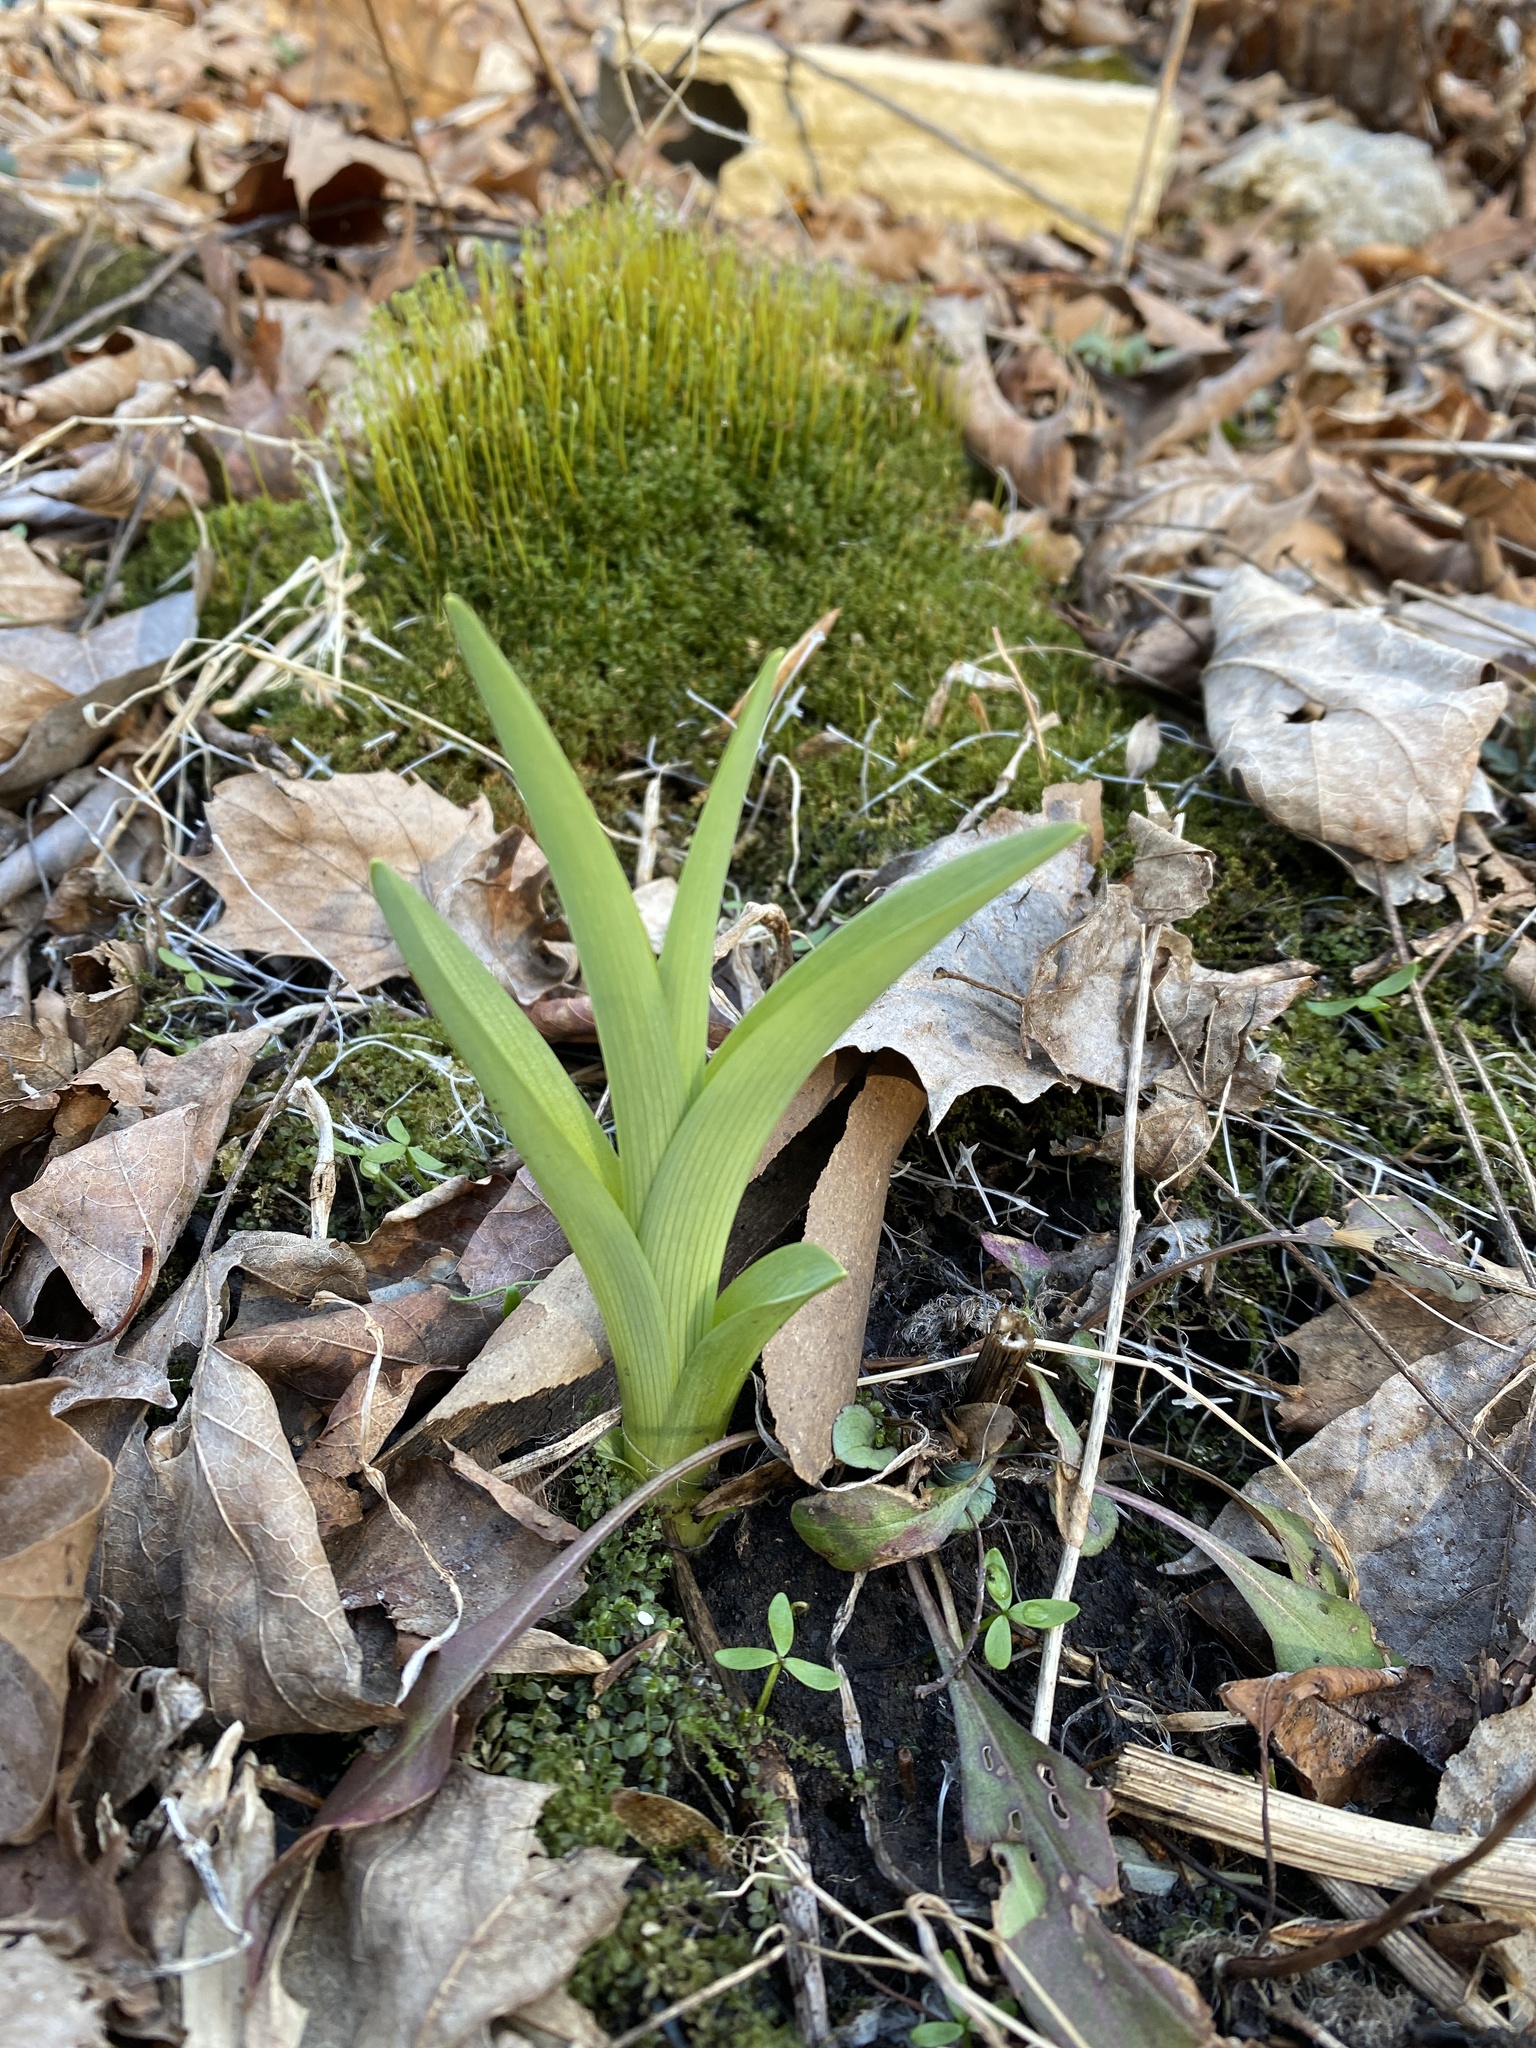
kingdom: Plantae
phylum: Tracheophyta
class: Liliopsida
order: Asparagales
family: Asphodelaceae
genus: Hemerocallis
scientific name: Hemerocallis fulva
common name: Orange day-lily
